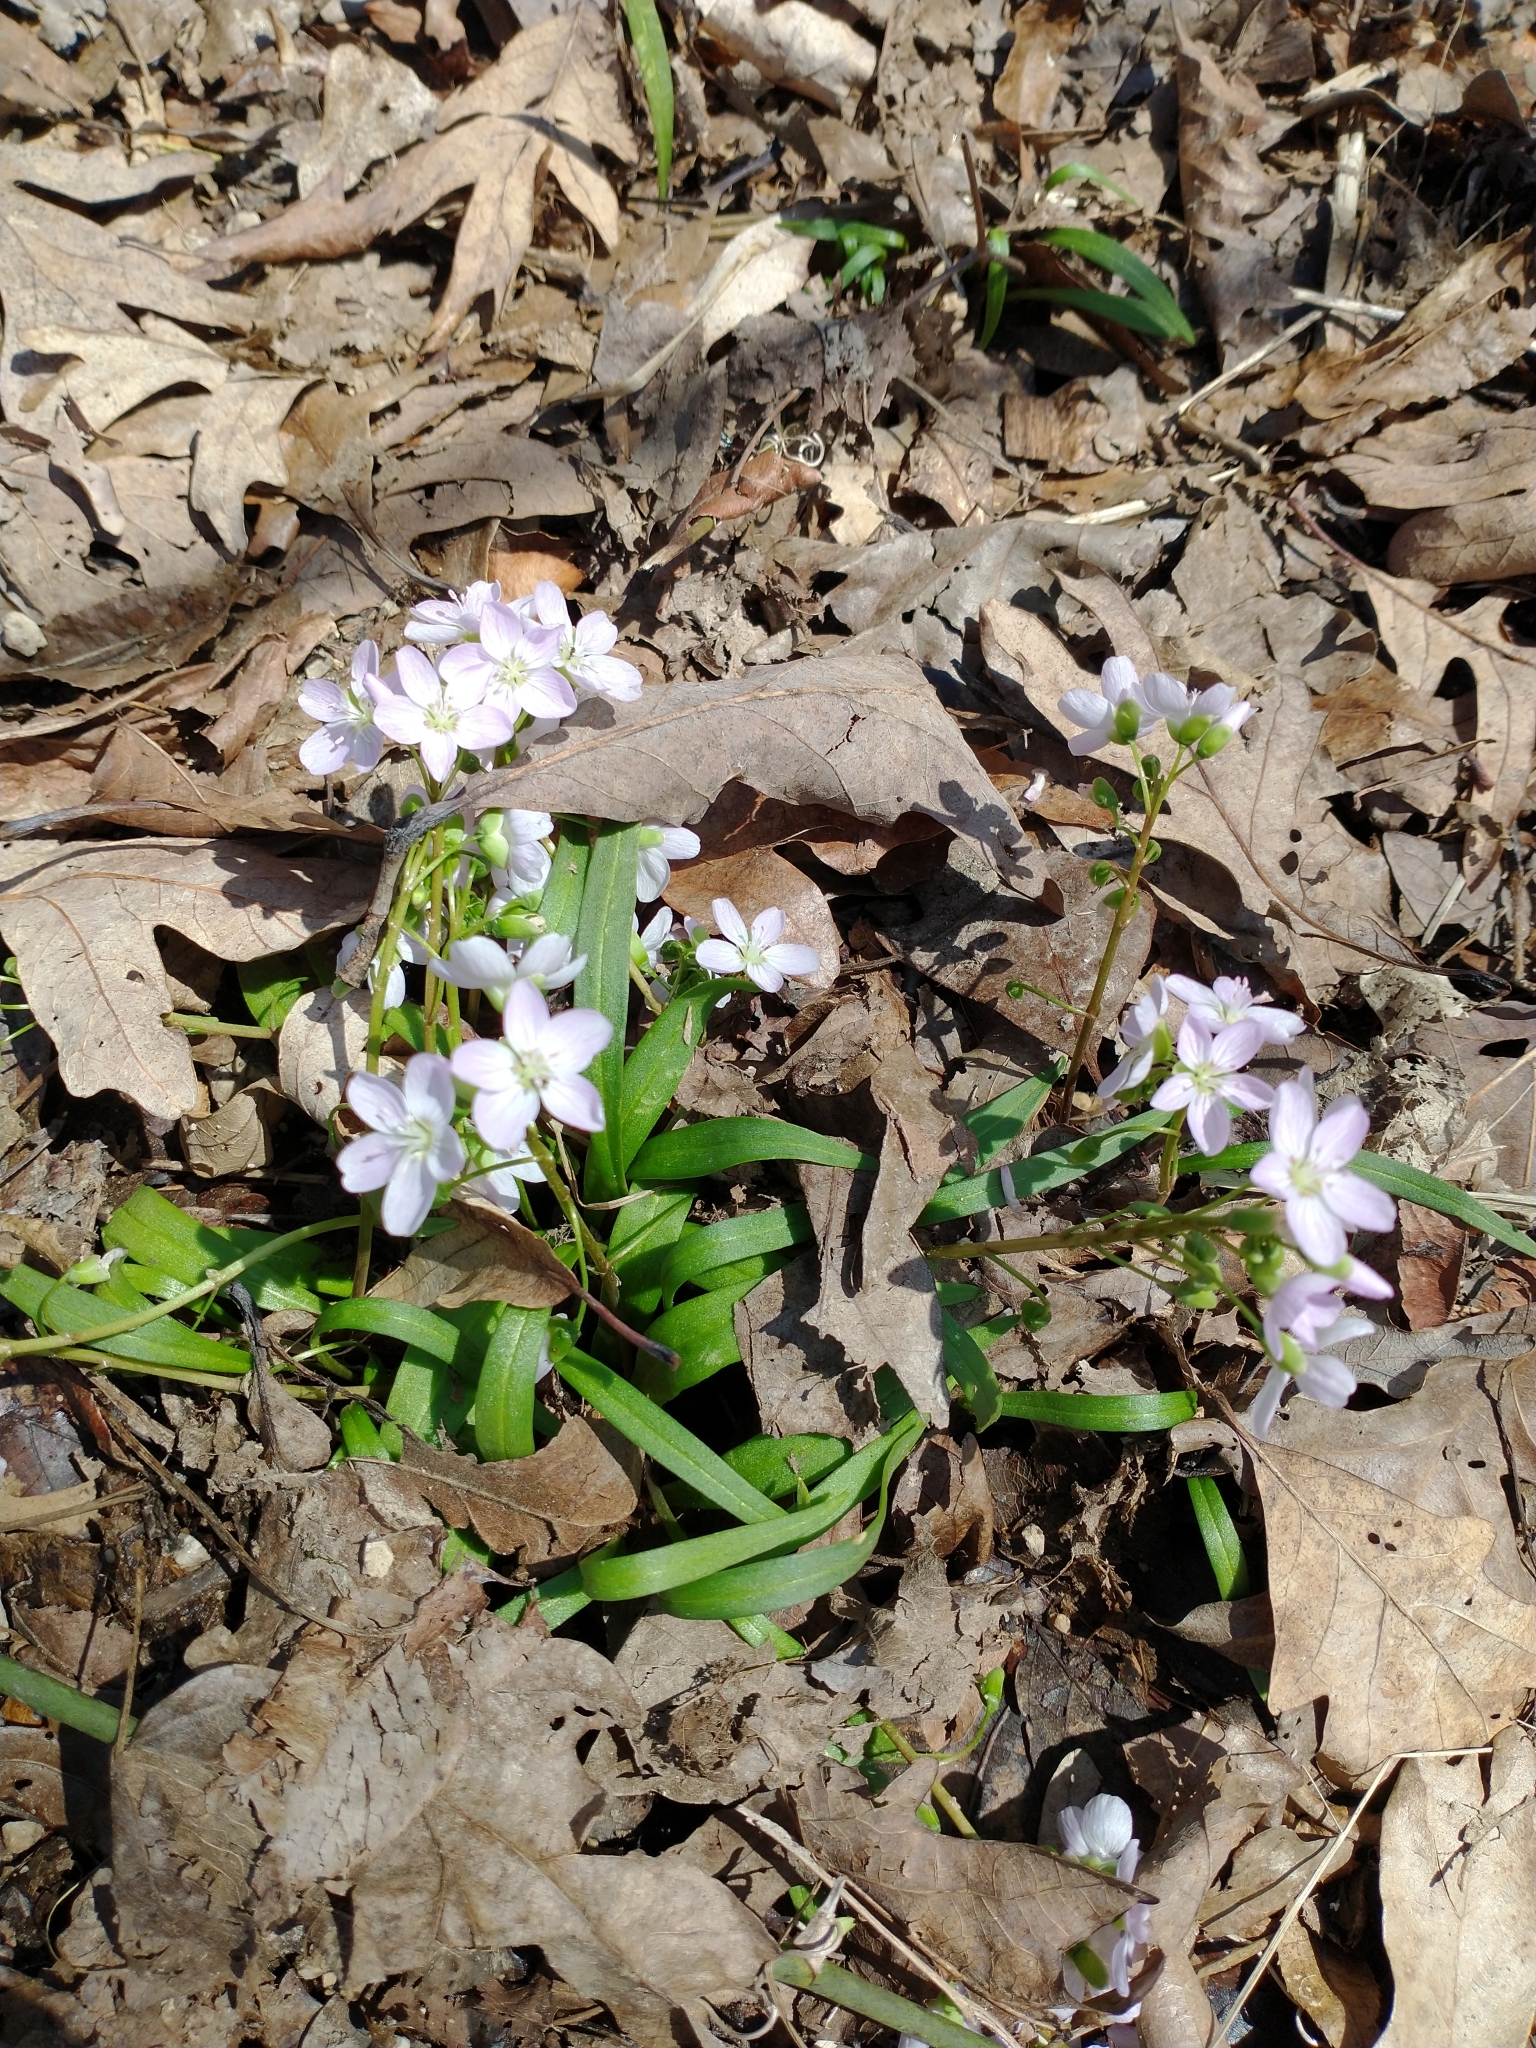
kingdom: Plantae
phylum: Tracheophyta
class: Magnoliopsida
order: Caryophyllales
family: Montiaceae
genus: Claytonia
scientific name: Claytonia virginica
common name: Virginia springbeauty
